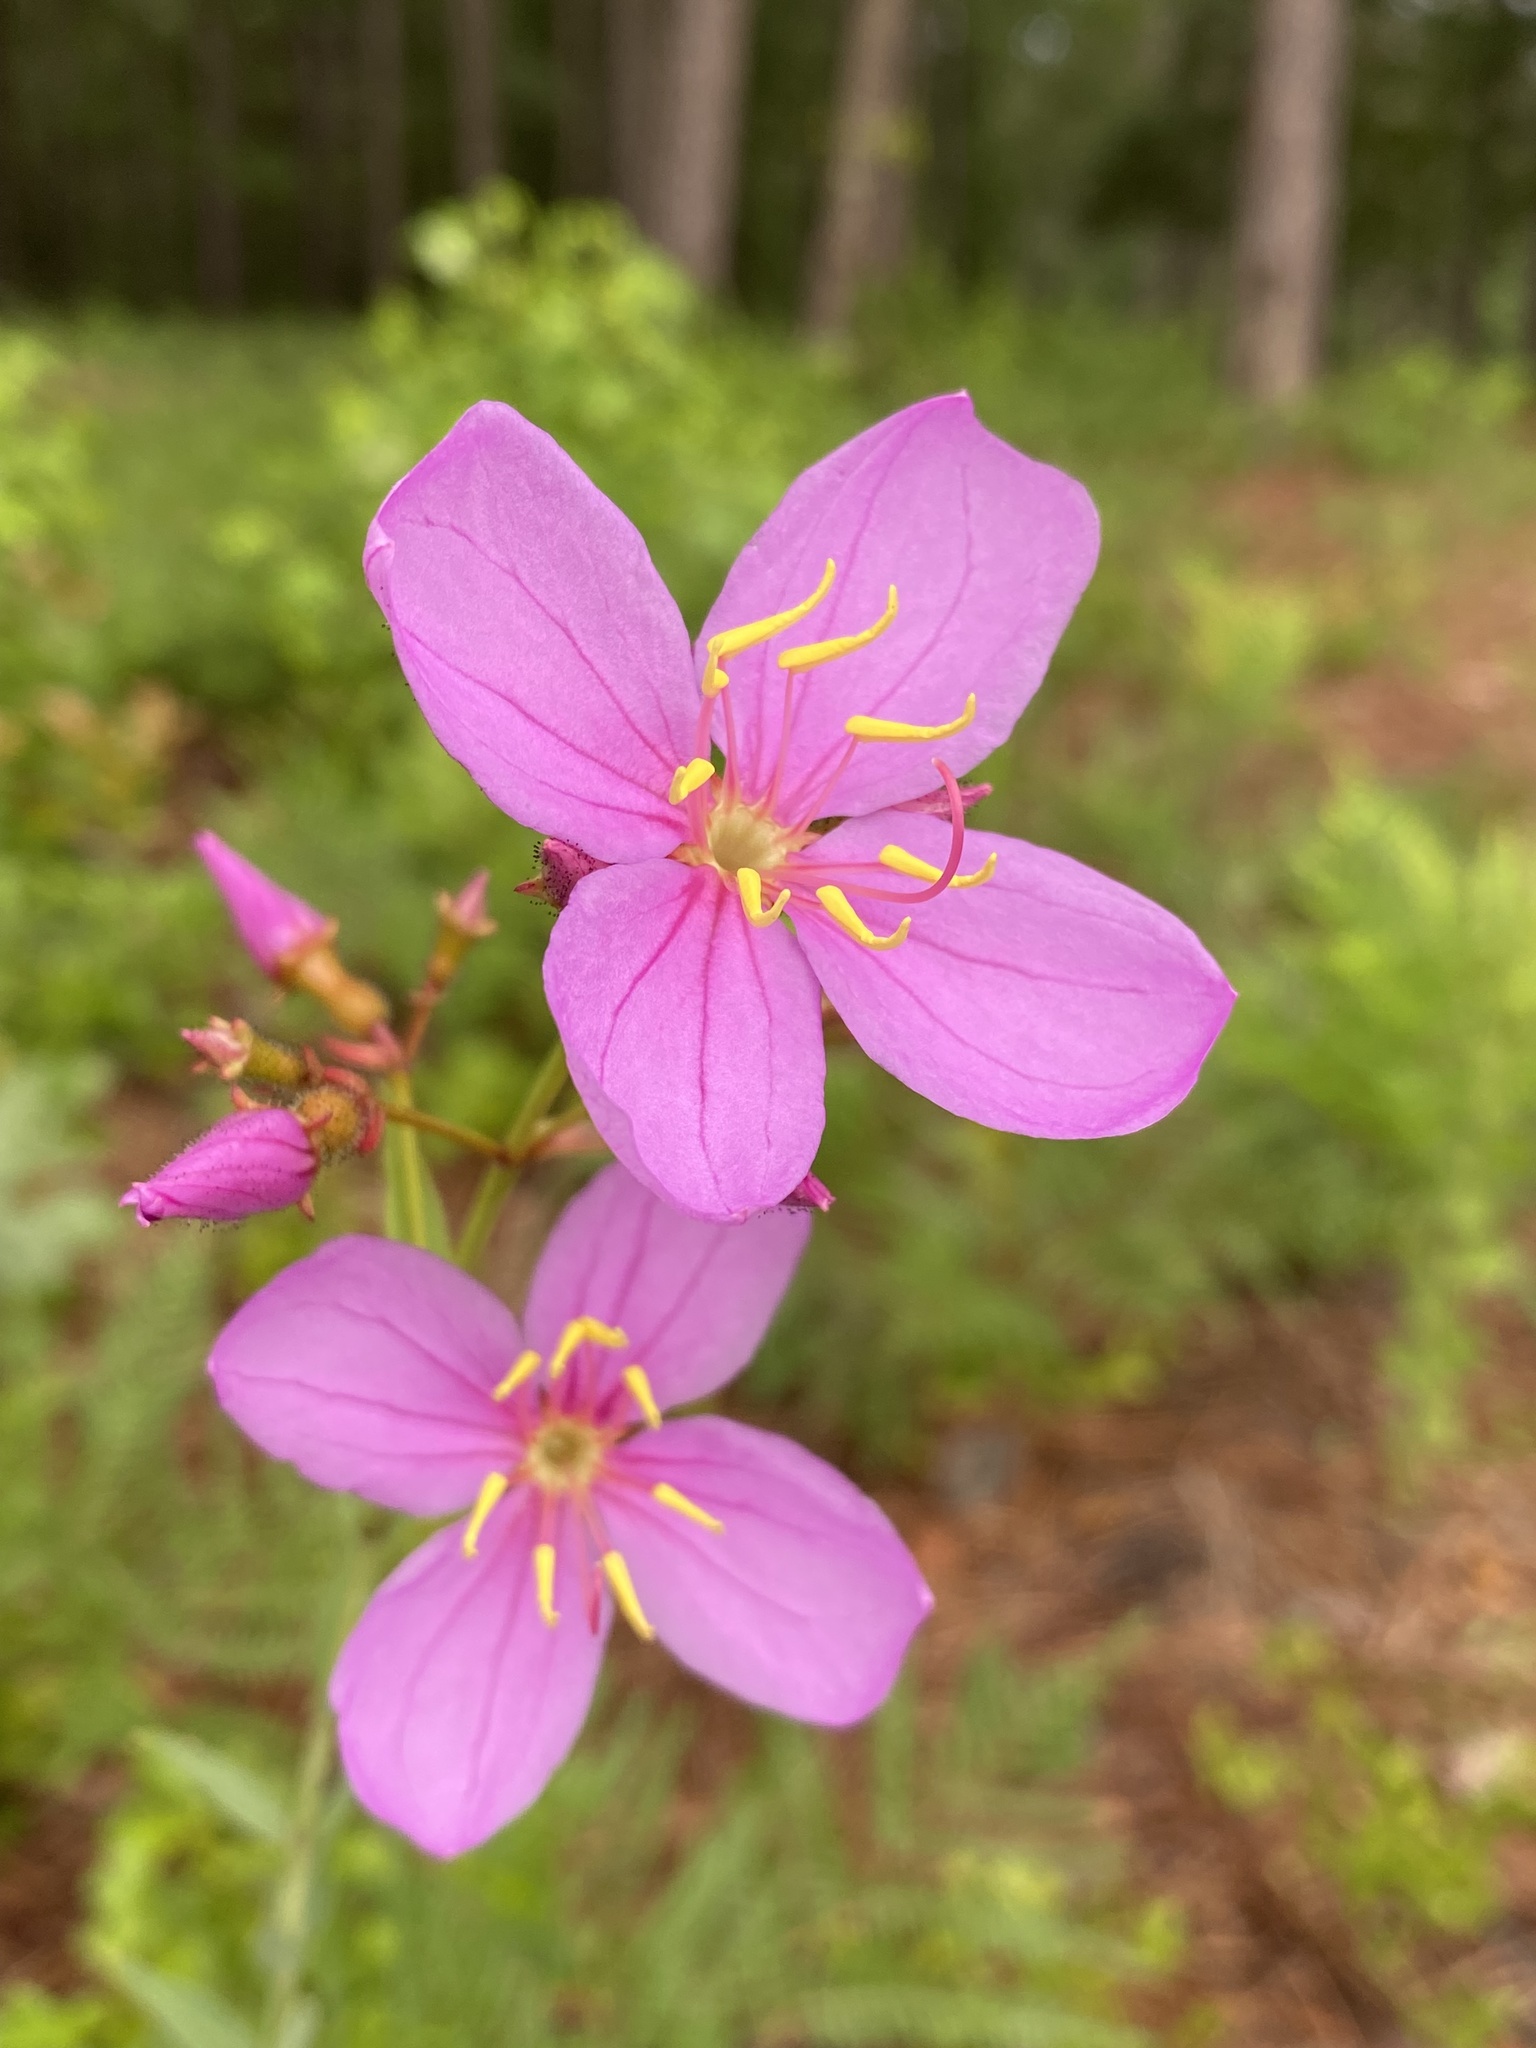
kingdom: Plantae
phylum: Tracheophyta
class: Magnoliopsida
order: Myrtales
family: Melastomataceae
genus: Rhexia
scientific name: Rhexia alifanus
